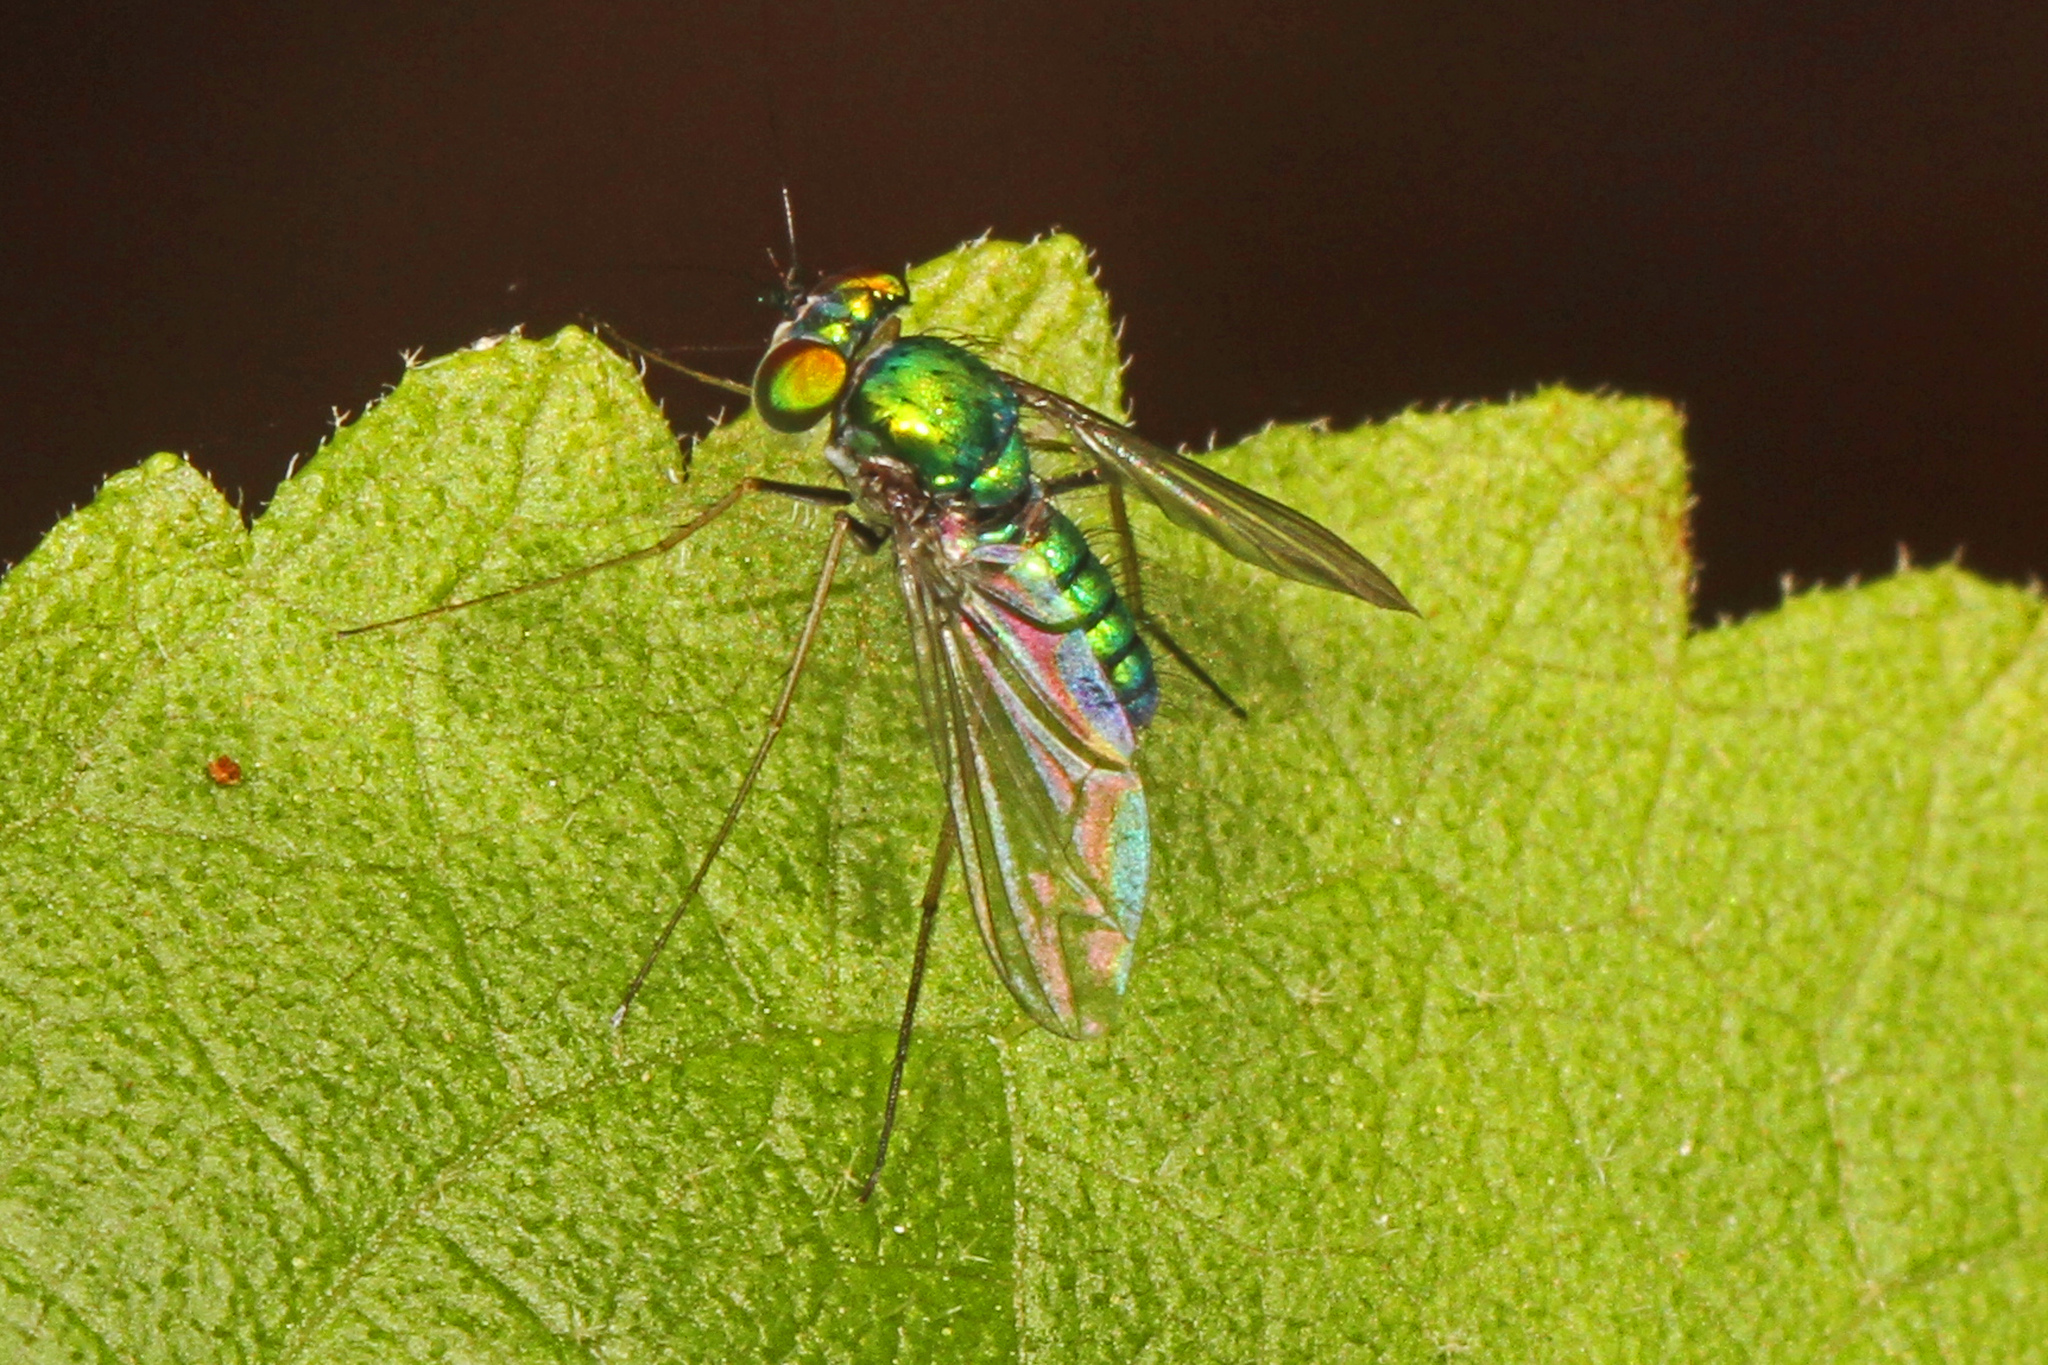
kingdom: Animalia
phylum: Arthropoda
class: Insecta
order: Diptera
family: Dolichopodidae
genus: Condylostylus
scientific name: Condylostylus crinitus
